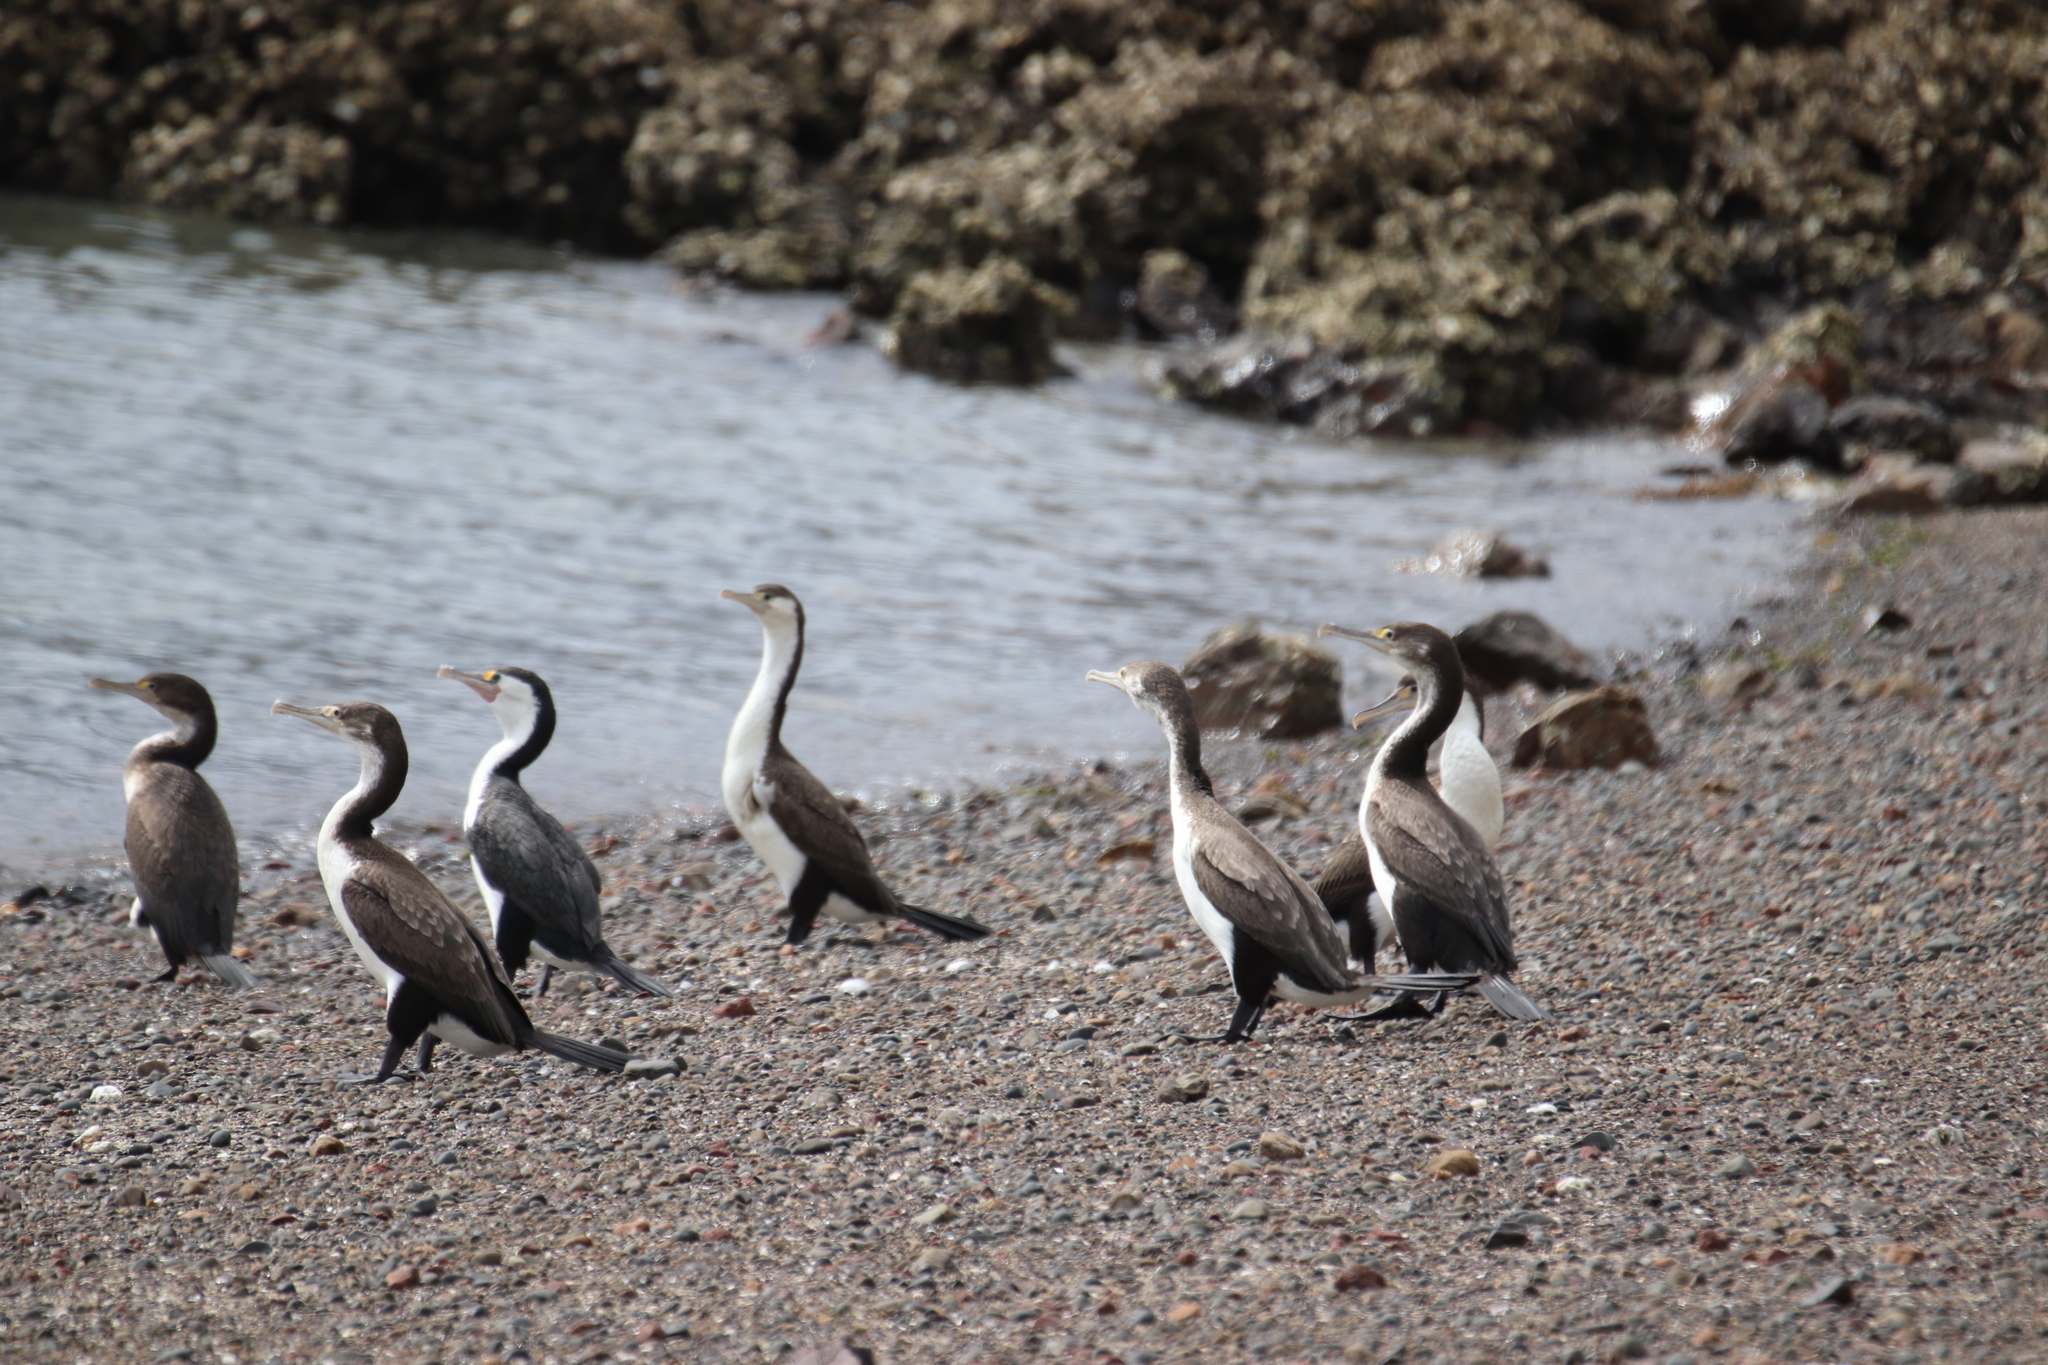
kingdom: Animalia
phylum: Chordata
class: Aves
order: Suliformes
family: Phalacrocoracidae
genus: Phalacrocorax
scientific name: Phalacrocorax varius
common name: Pied cormorant
